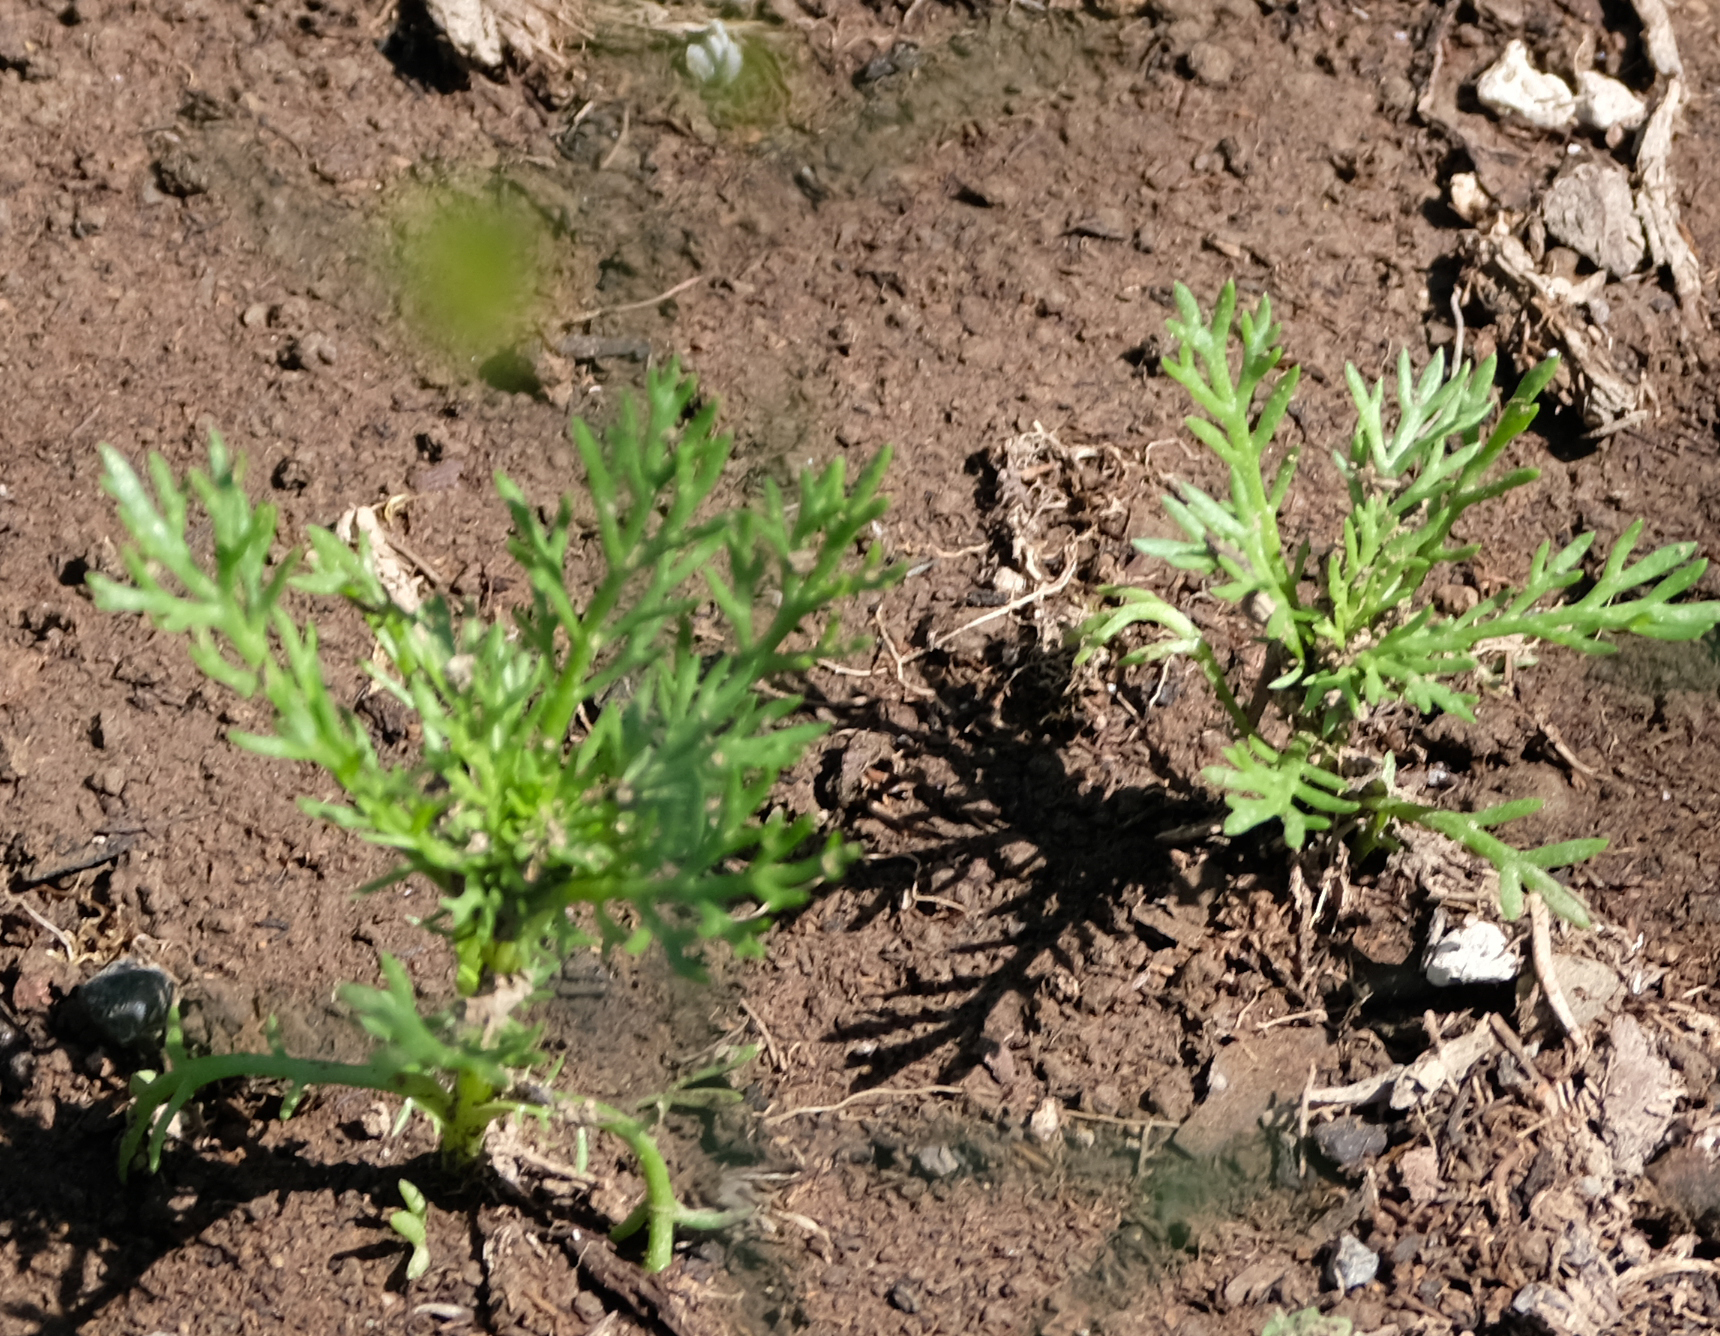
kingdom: Plantae
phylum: Tracheophyta
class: Magnoliopsida
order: Asterales
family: Asteraceae
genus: Matricaria
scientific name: Matricaria discoidea
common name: Disc mayweed
